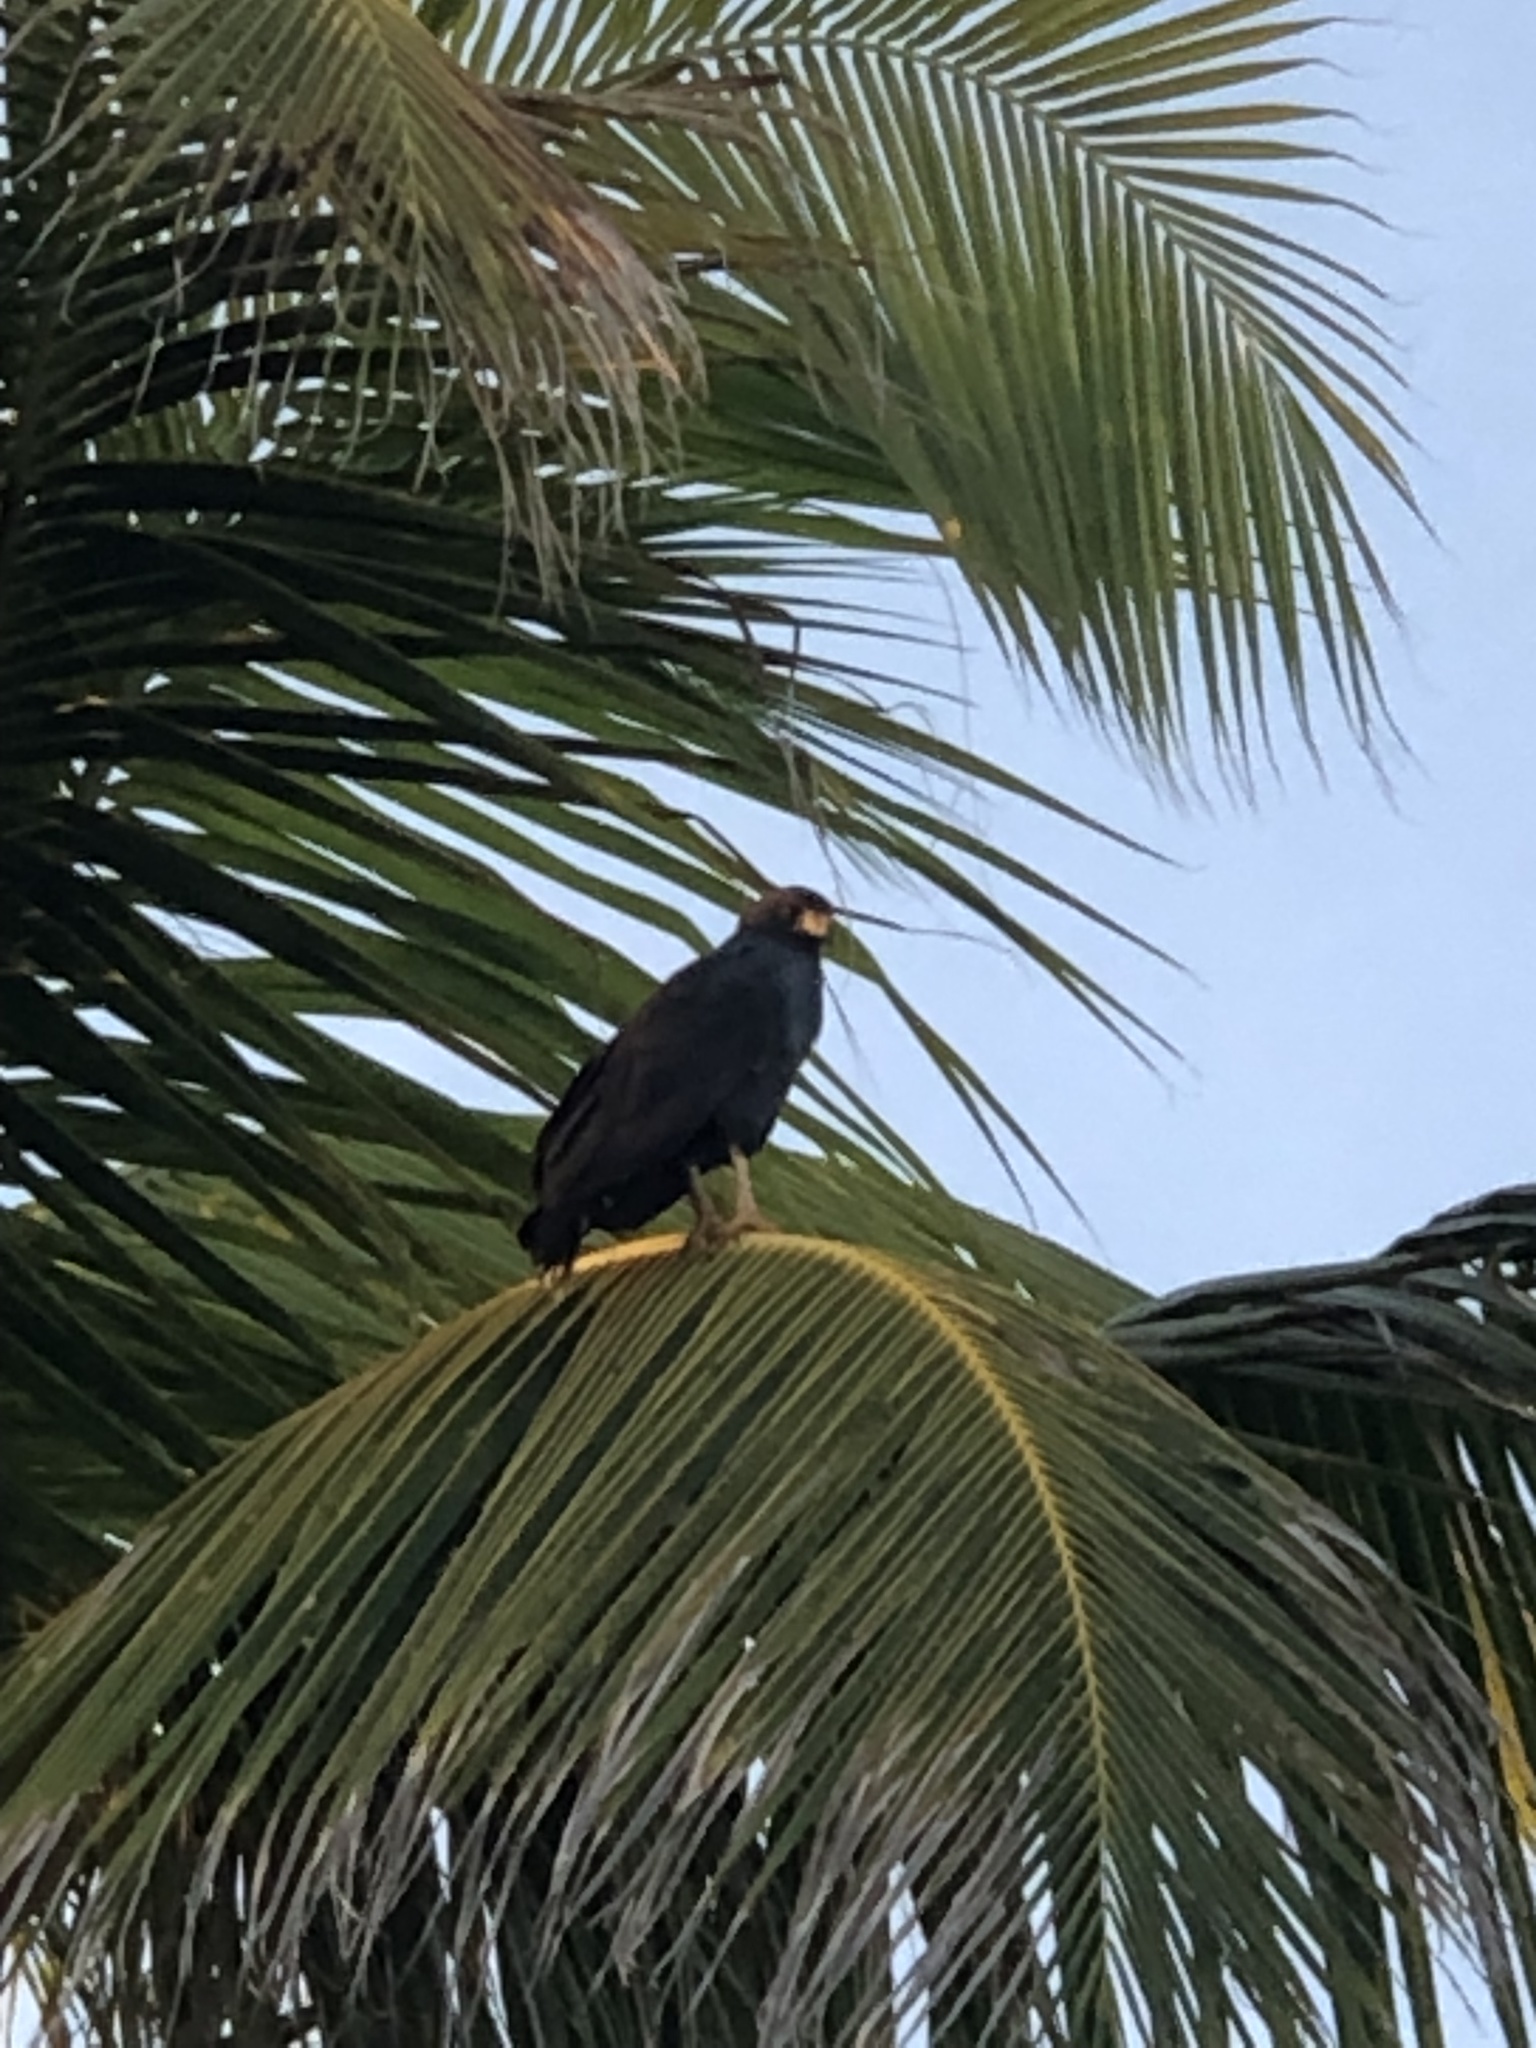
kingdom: Animalia
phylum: Chordata
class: Aves
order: Accipitriformes
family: Accipitridae
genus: Buteogallus
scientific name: Buteogallus anthracinus
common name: Common black hawk
